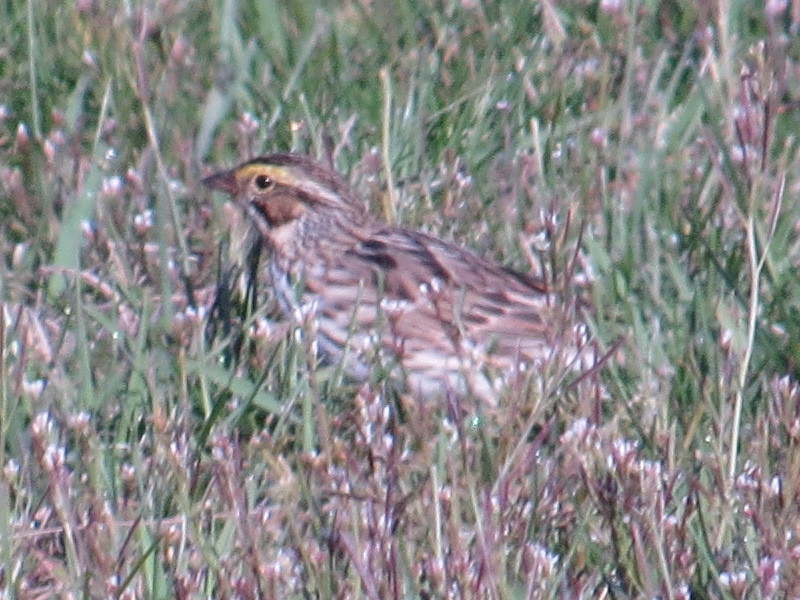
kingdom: Animalia
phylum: Chordata
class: Aves
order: Passeriformes
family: Passerellidae
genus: Passerculus
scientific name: Passerculus sandwichensis
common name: Savannah sparrow
